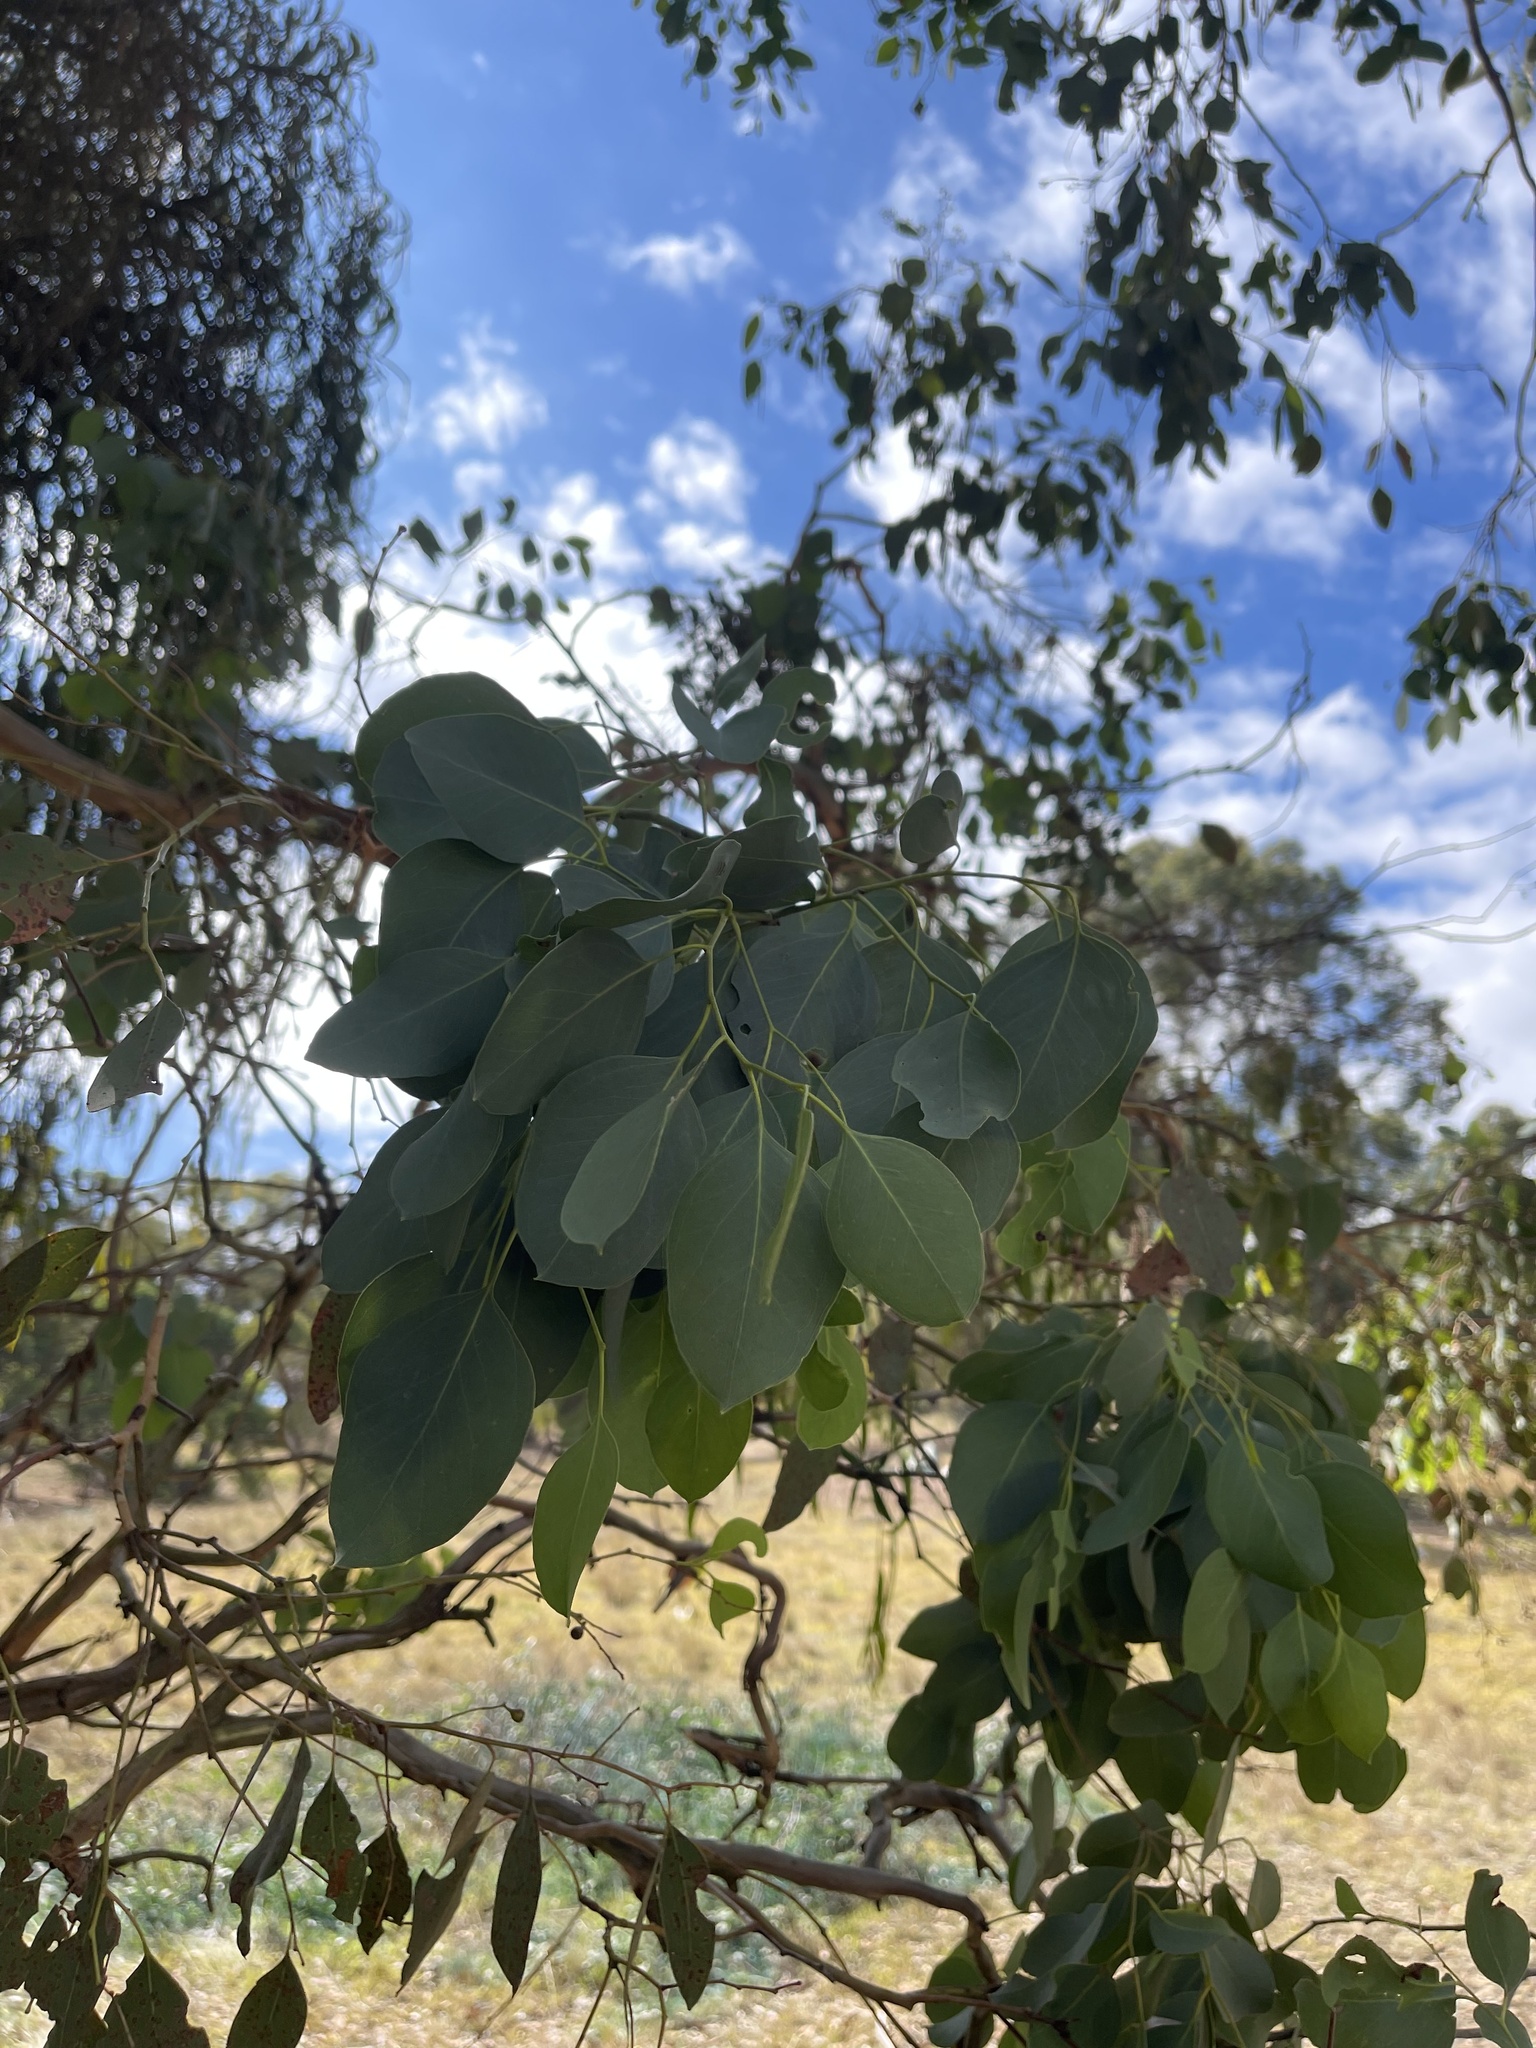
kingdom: Plantae
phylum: Tracheophyta
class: Magnoliopsida
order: Myrtales
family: Myrtaceae
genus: Eucalyptus
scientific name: Eucalyptus polyanthemos
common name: Red-box
